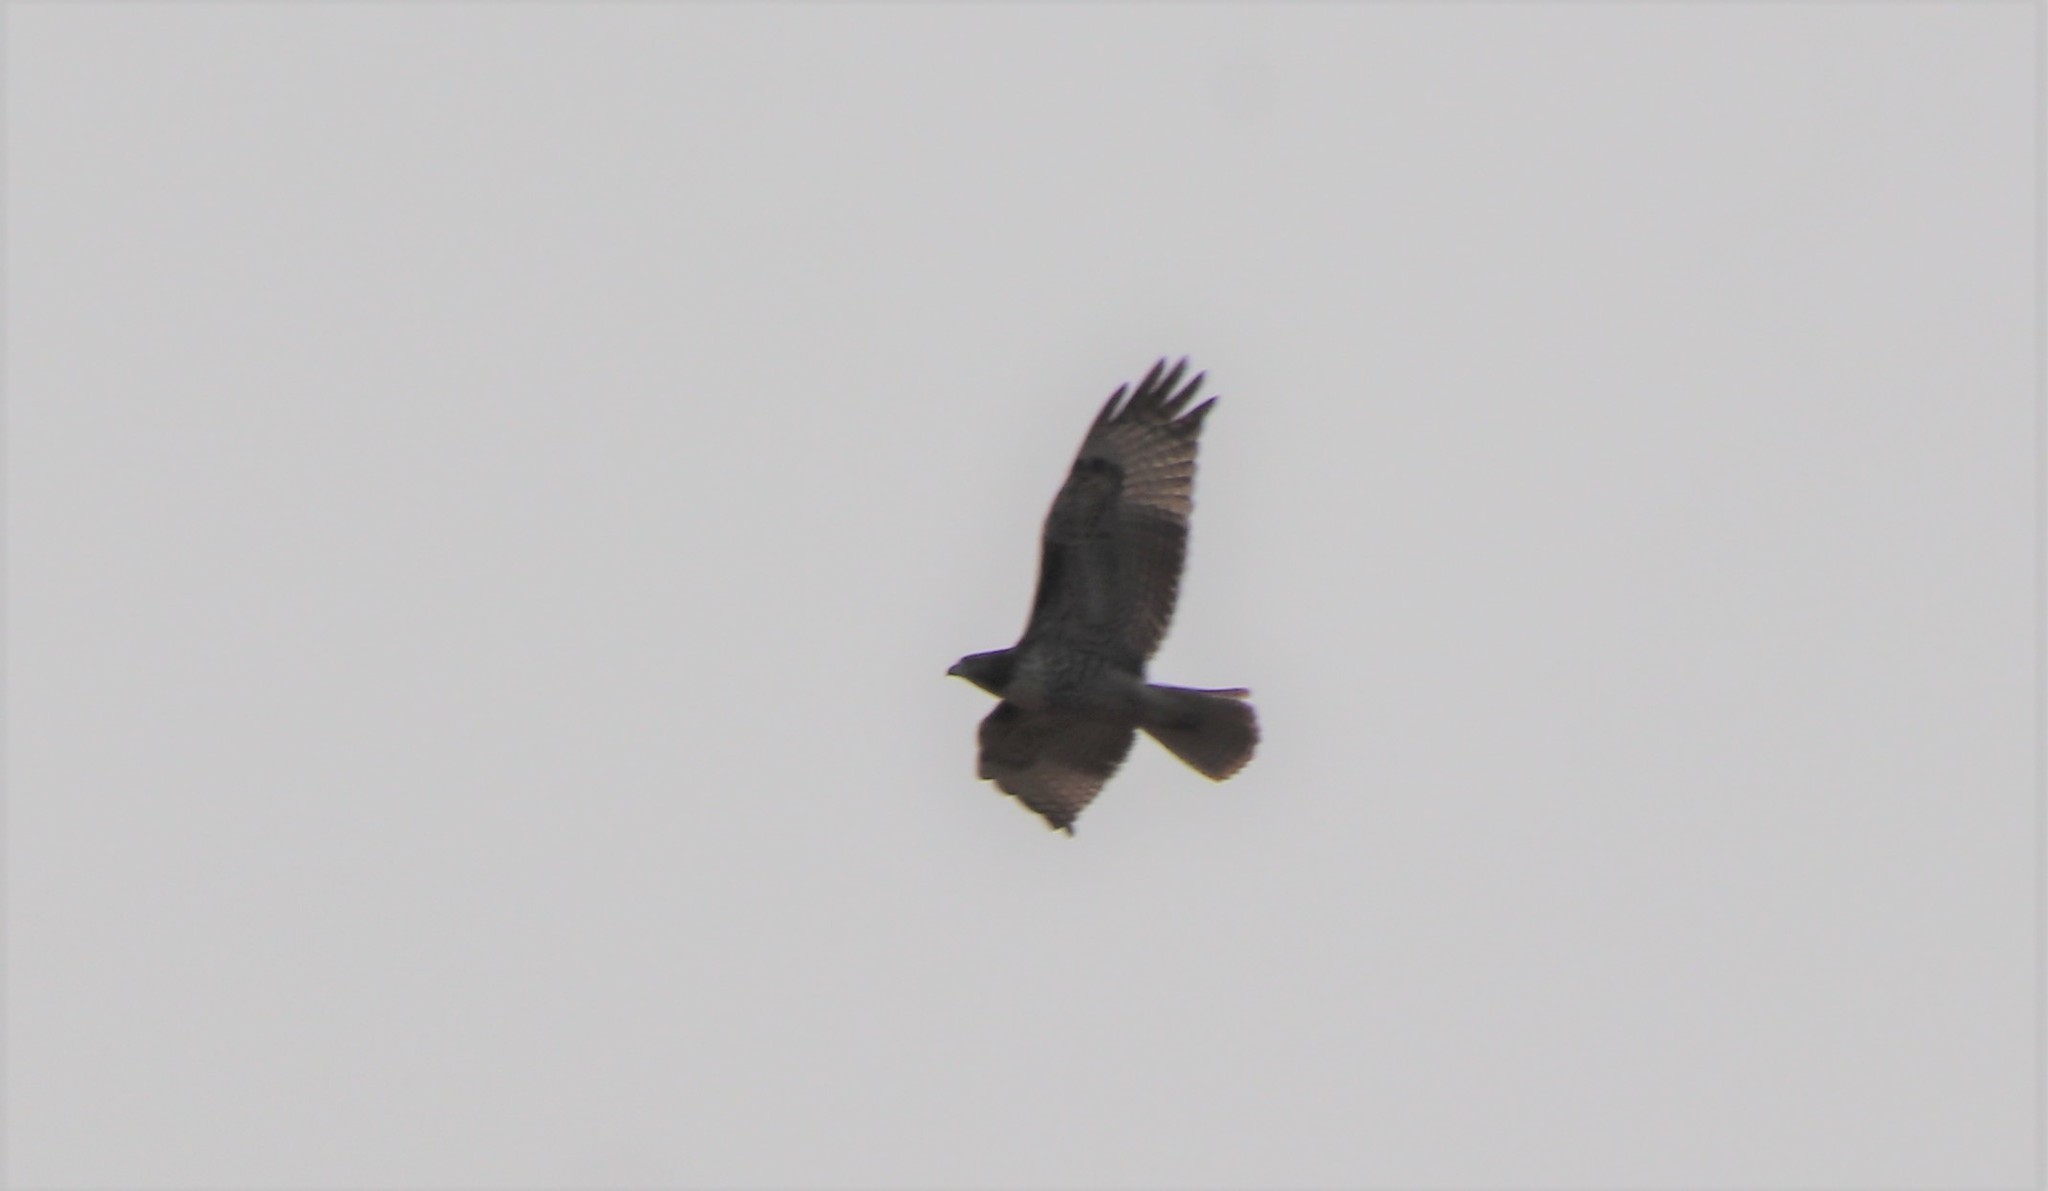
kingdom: Animalia
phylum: Chordata
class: Aves
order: Accipitriformes
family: Accipitridae
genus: Buteo
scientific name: Buteo jamaicensis
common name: Red-tailed hawk
